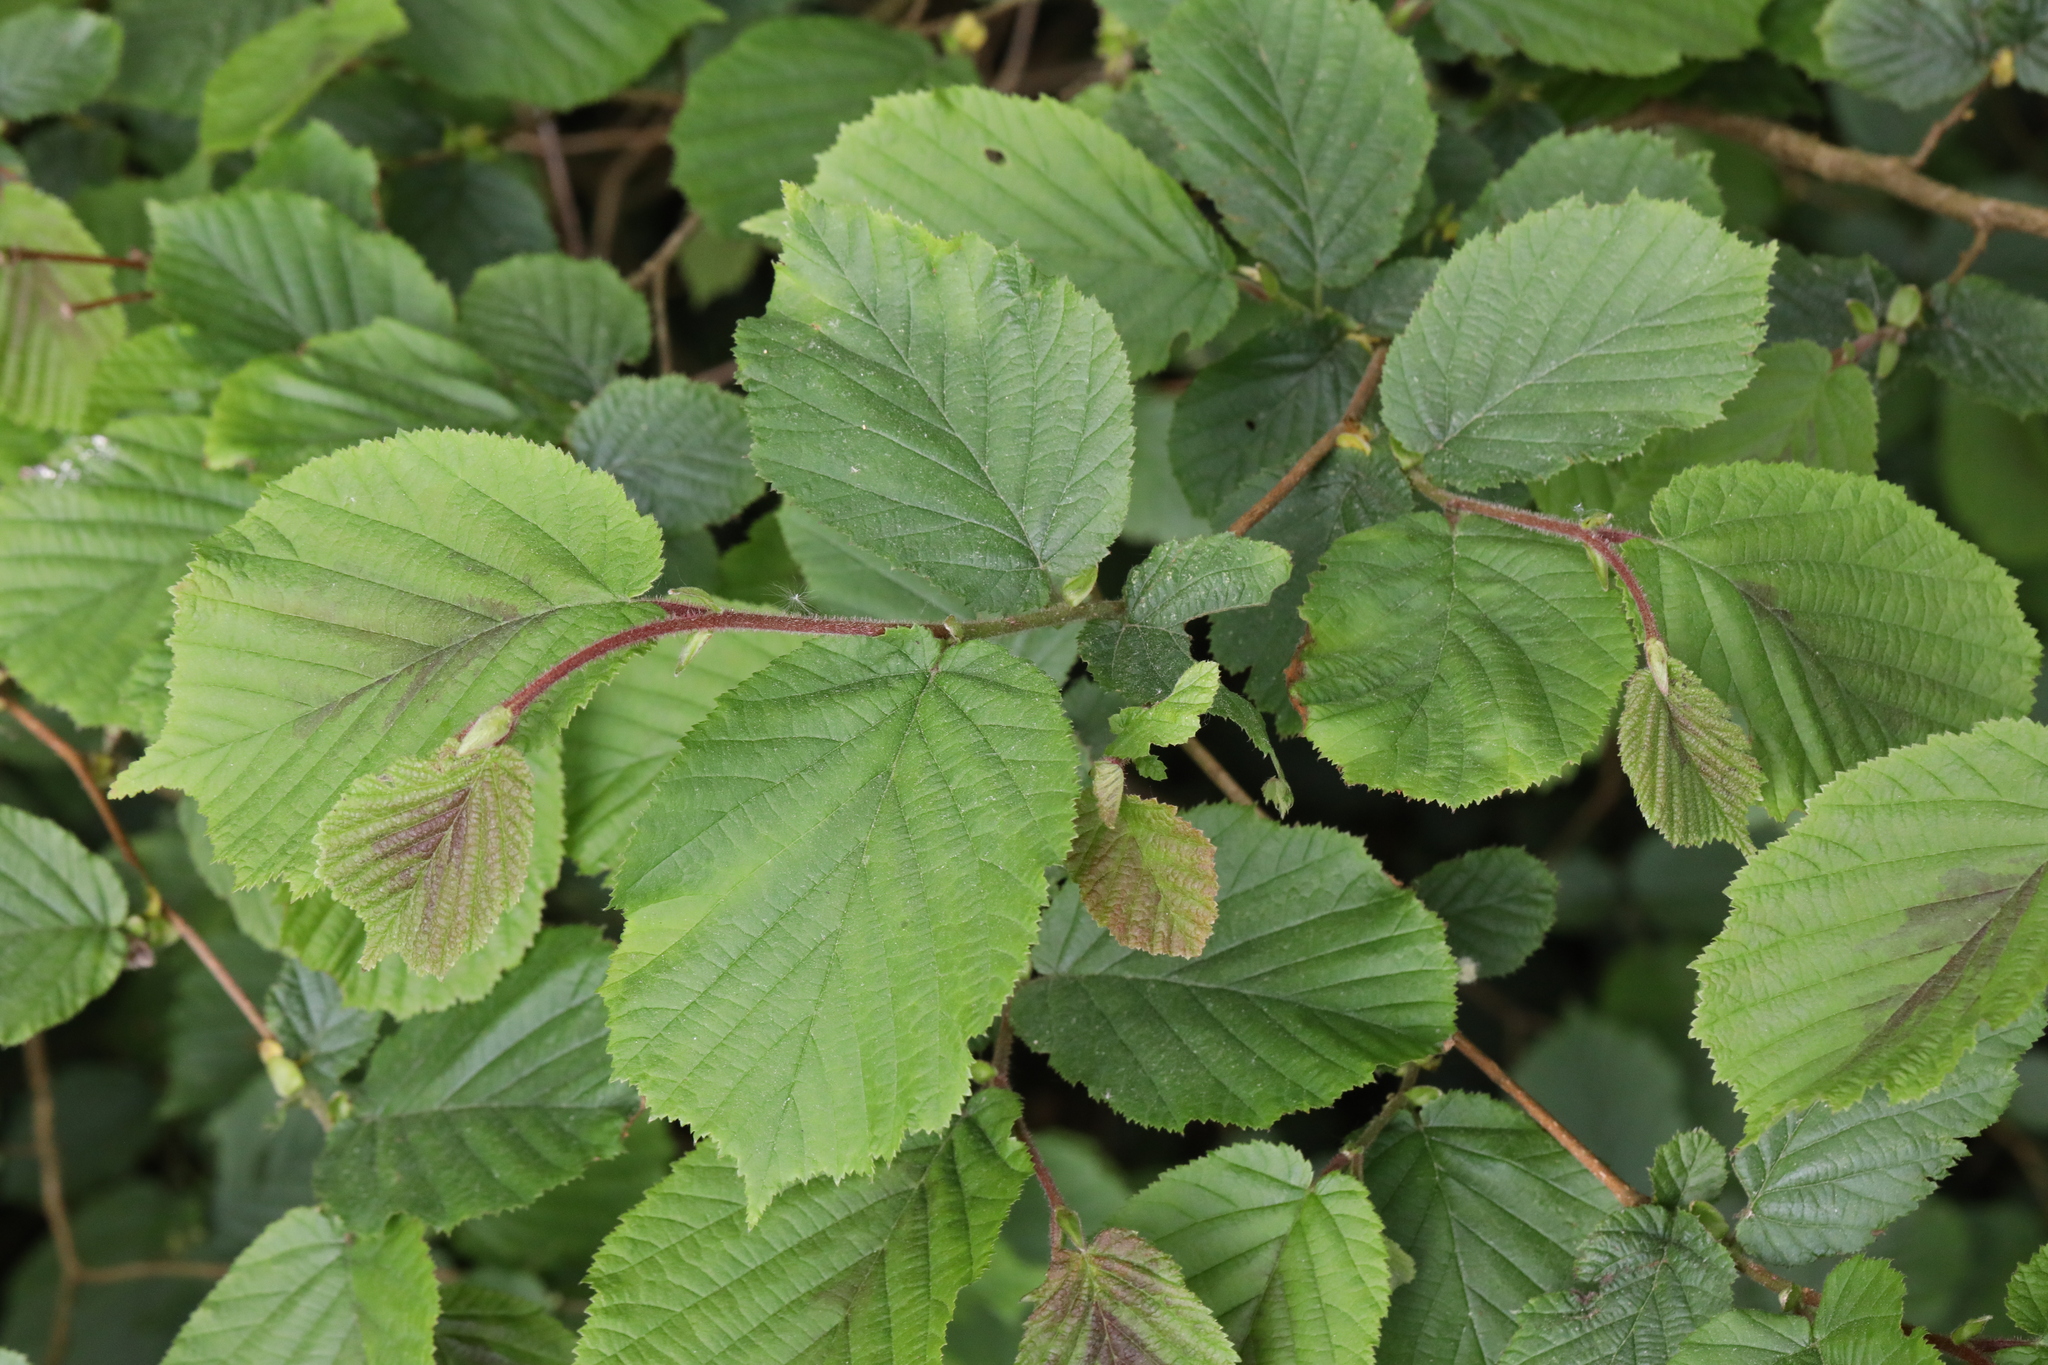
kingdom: Plantae
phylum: Tracheophyta
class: Magnoliopsida
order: Fagales
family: Betulaceae
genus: Corylus
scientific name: Corylus avellana
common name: European hazel
